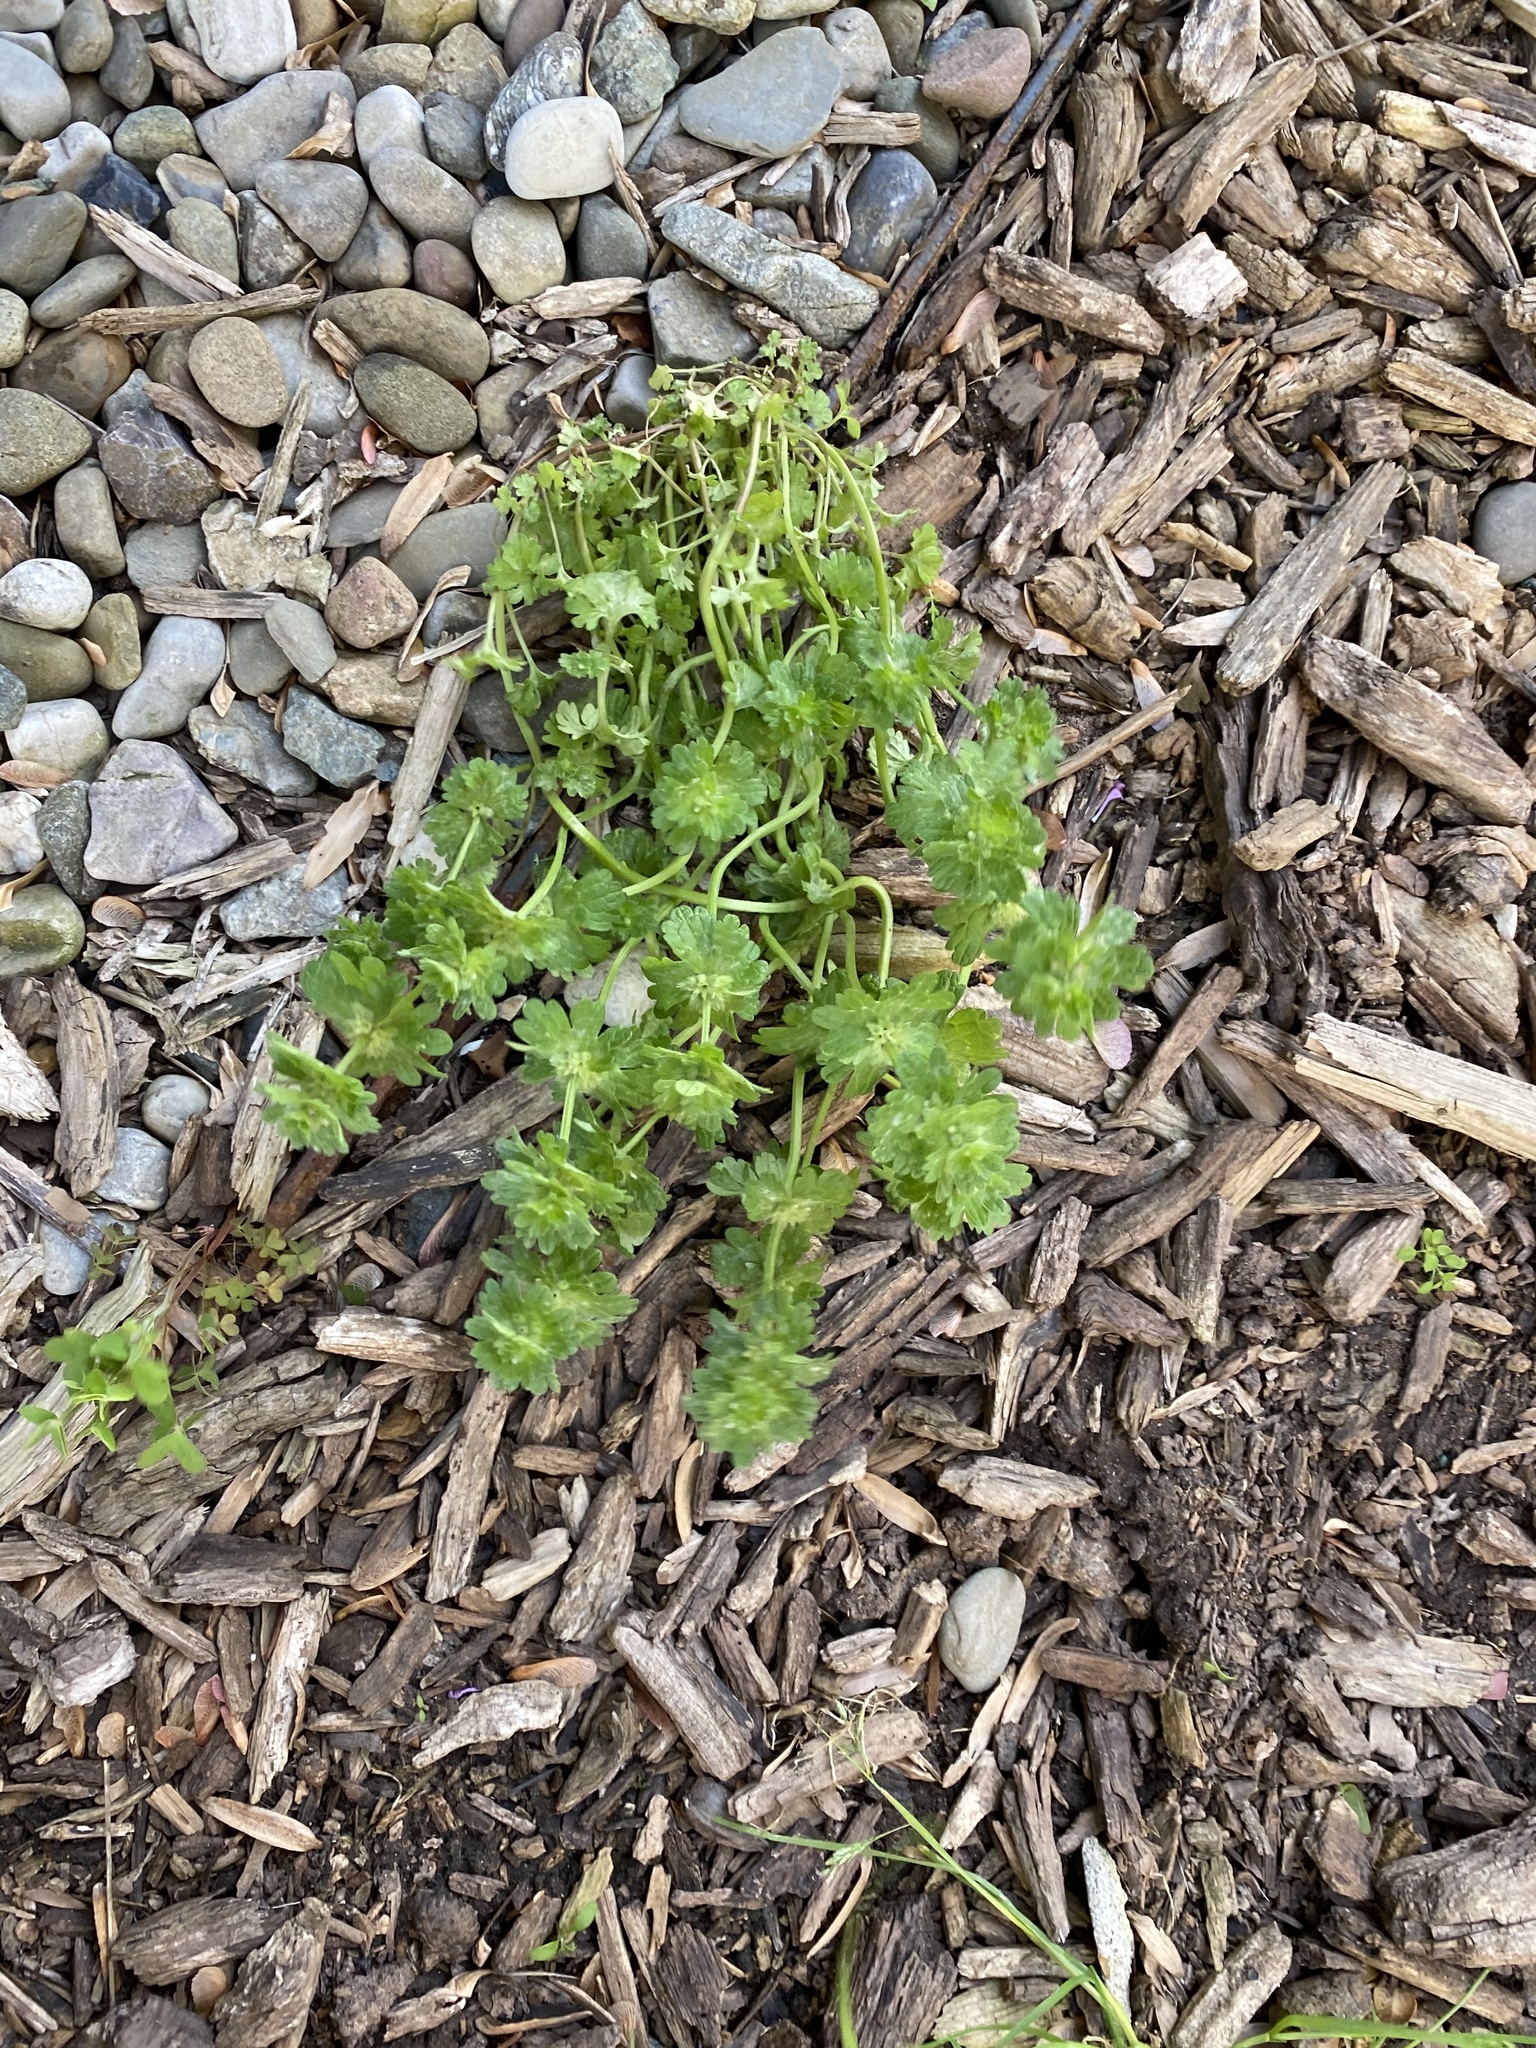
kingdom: Plantae
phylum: Tracheophyta
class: Magnoliopsida
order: Lamiales
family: Lamiaceae
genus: Lamium
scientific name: Lamium amplexicaule
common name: Henbit dead-nettle
